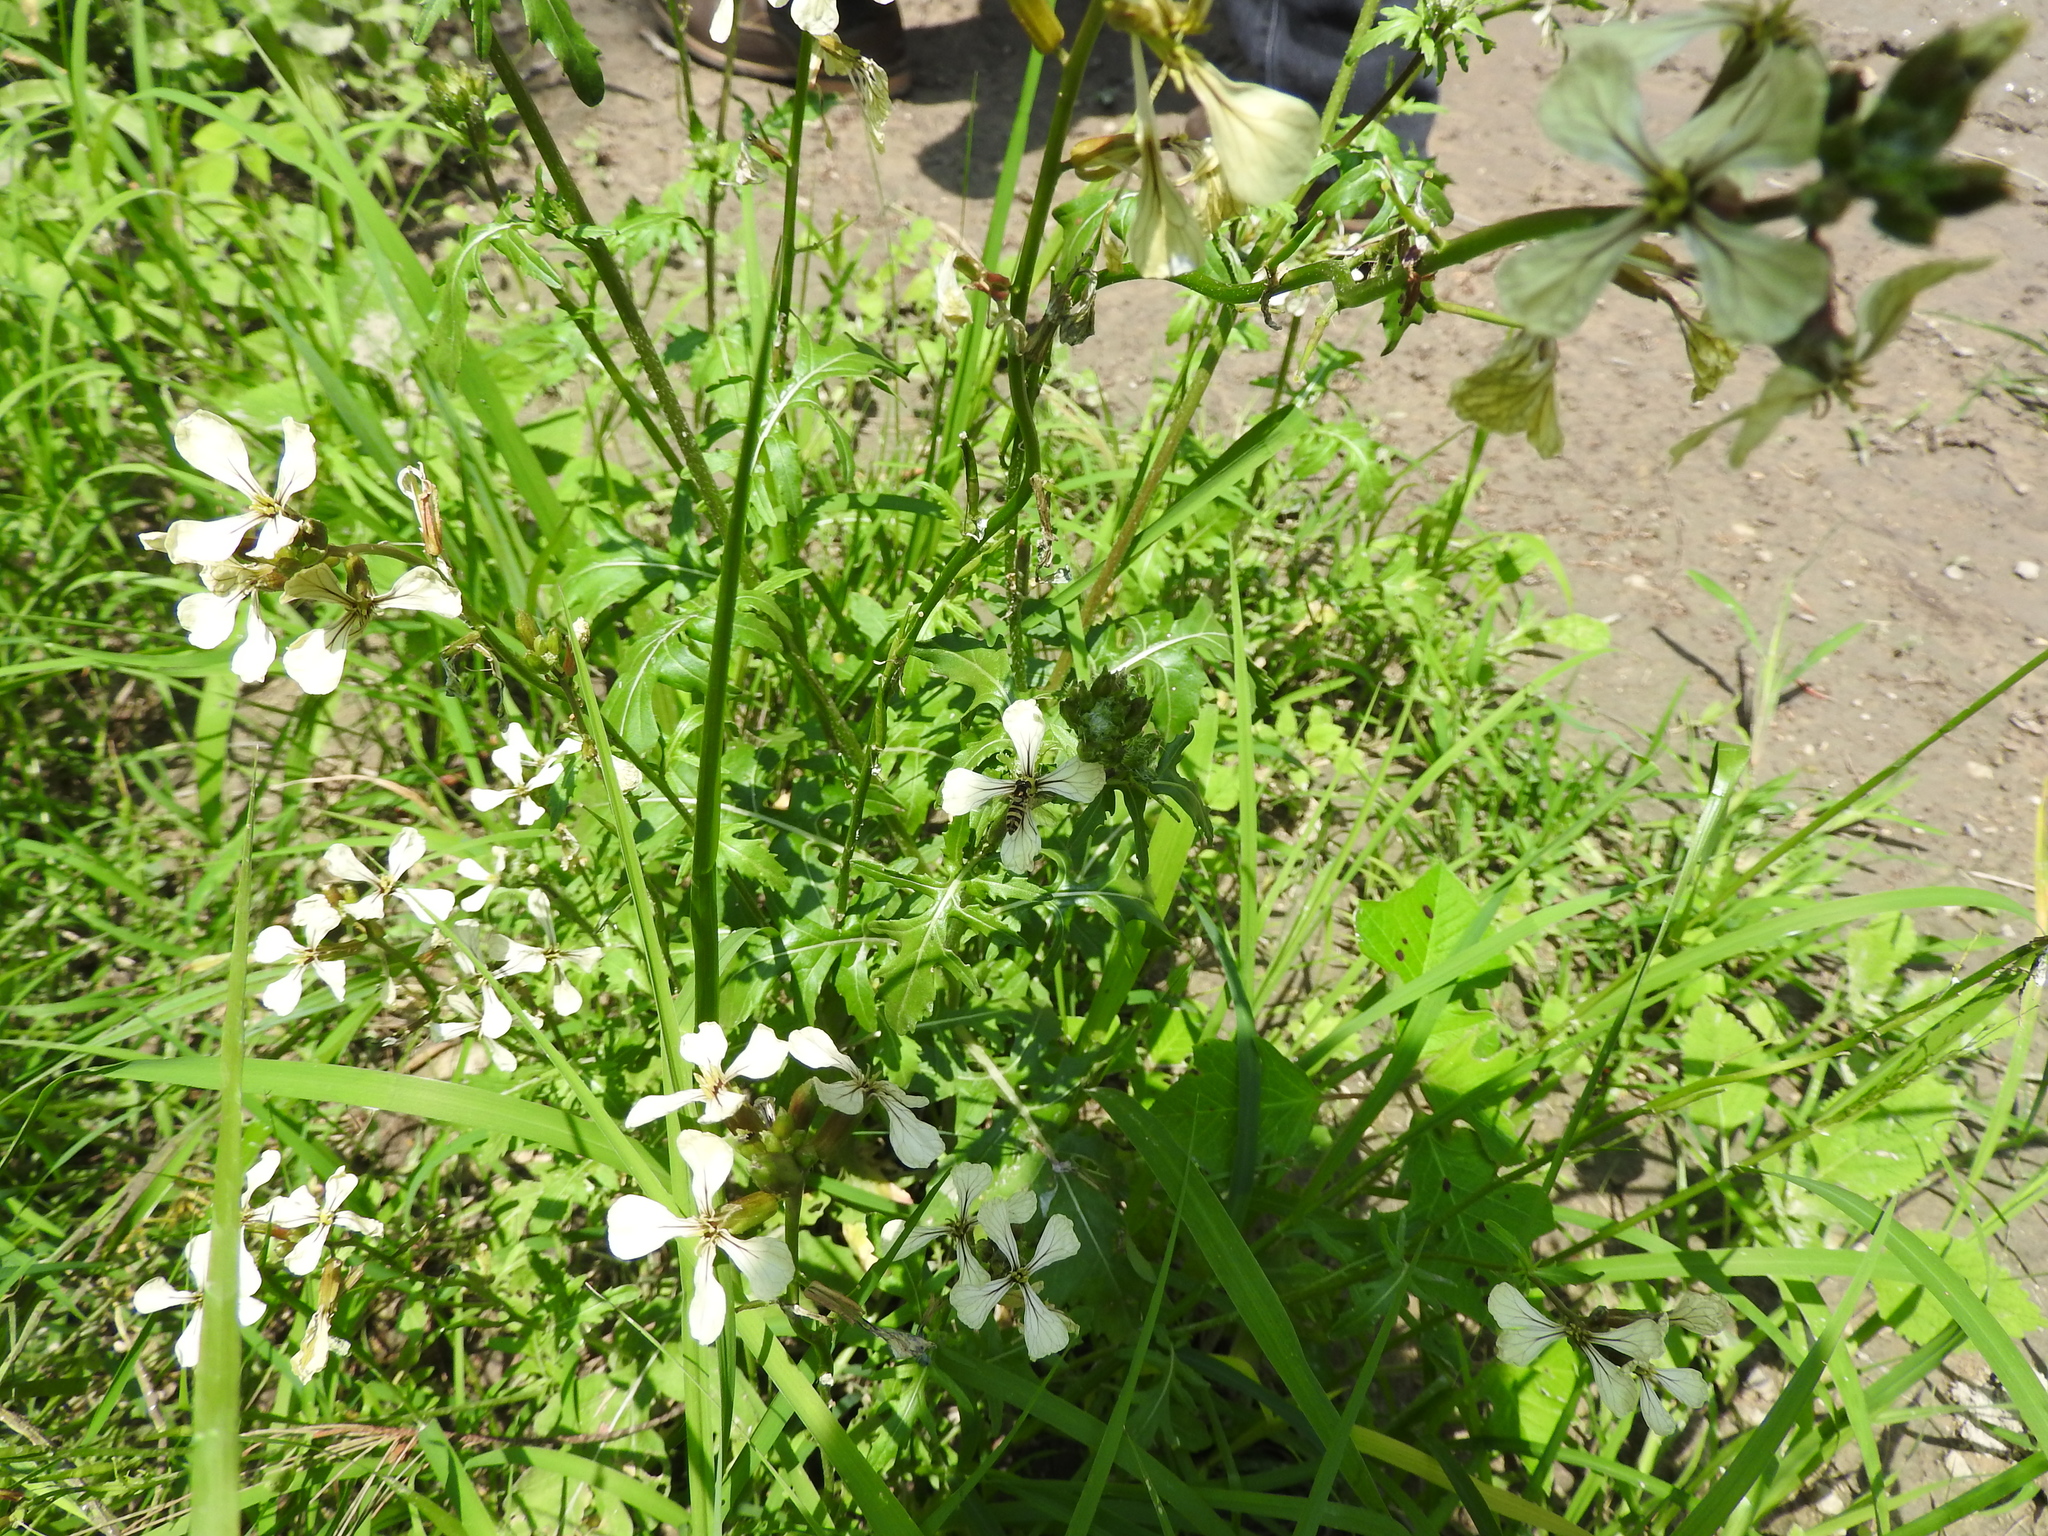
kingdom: Plantae
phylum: Tracheophyta
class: Magnoliopsida
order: Brassicales
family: Brassicaceae
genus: Eruca
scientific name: Eruca vesicaria
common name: Garden rocket
